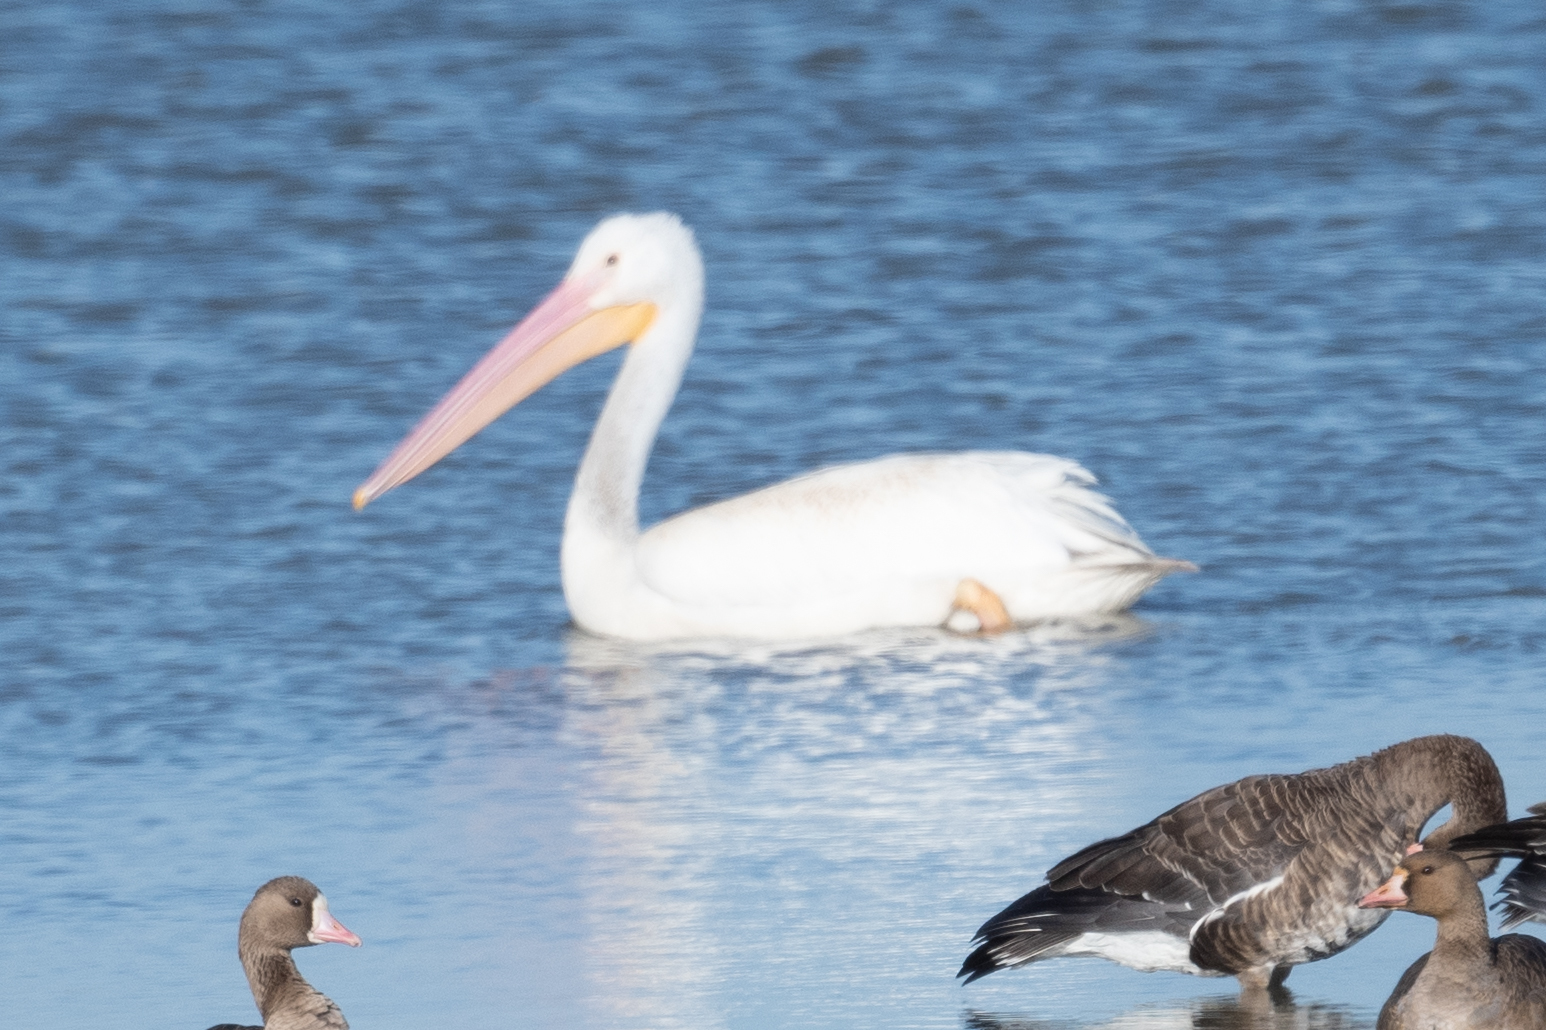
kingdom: Animalia
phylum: Chordata
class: Aves
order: Pelecaniformes
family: Pelecanidae
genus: Pelecanus
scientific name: Pelecanus erythrorhynchos
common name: American white pelican
